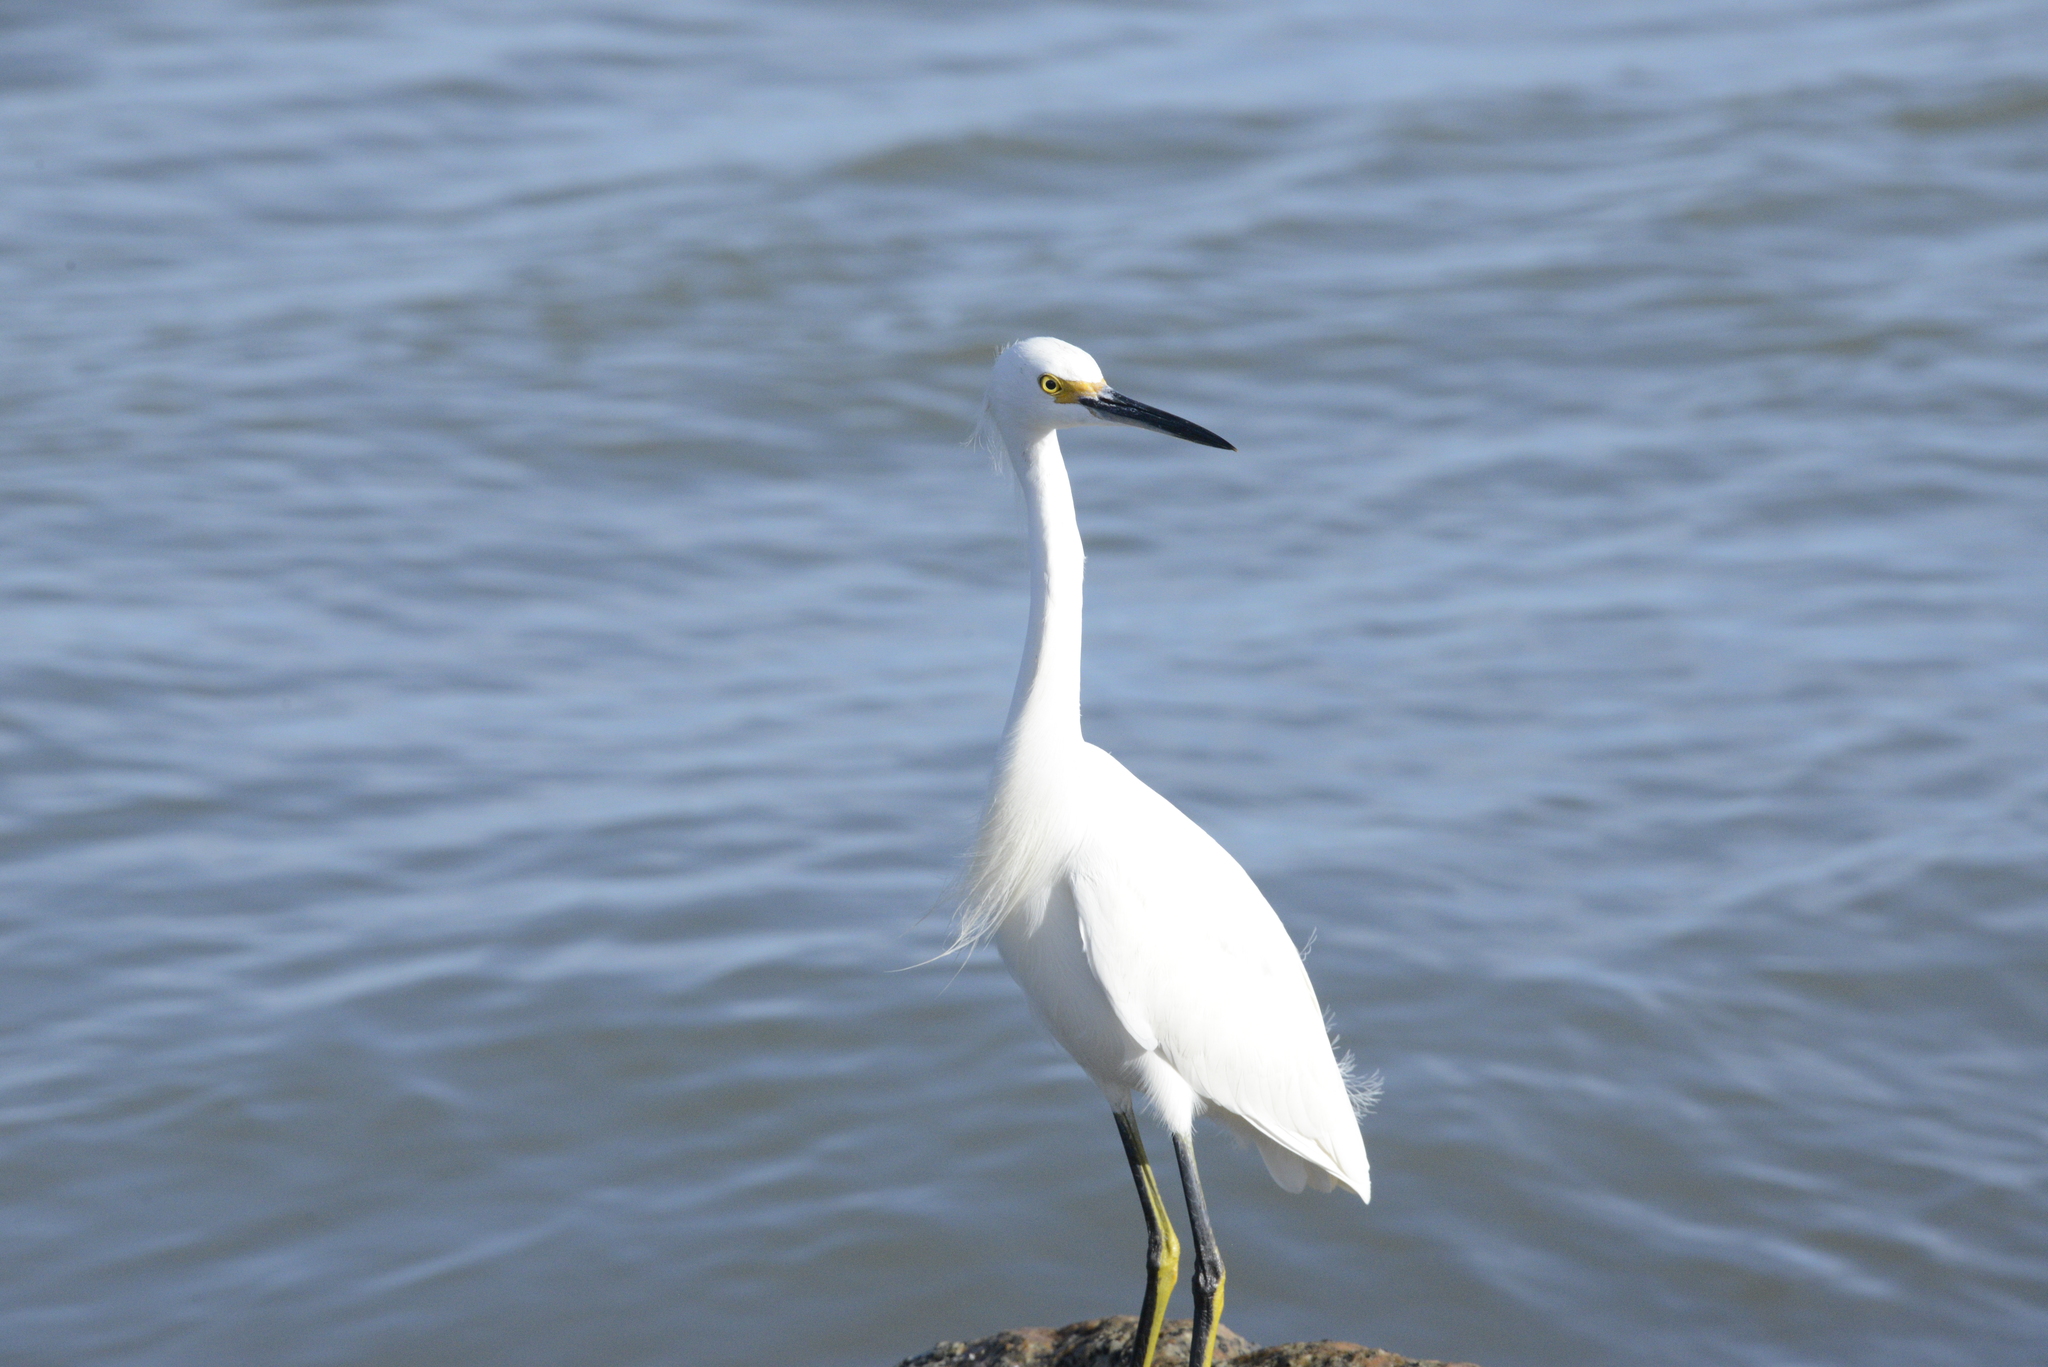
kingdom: Animalia
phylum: Chordata
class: Aves
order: Pelecaniformes
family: Ardeidae
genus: Egretta
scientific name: Egretta thula
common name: Snowy egret
